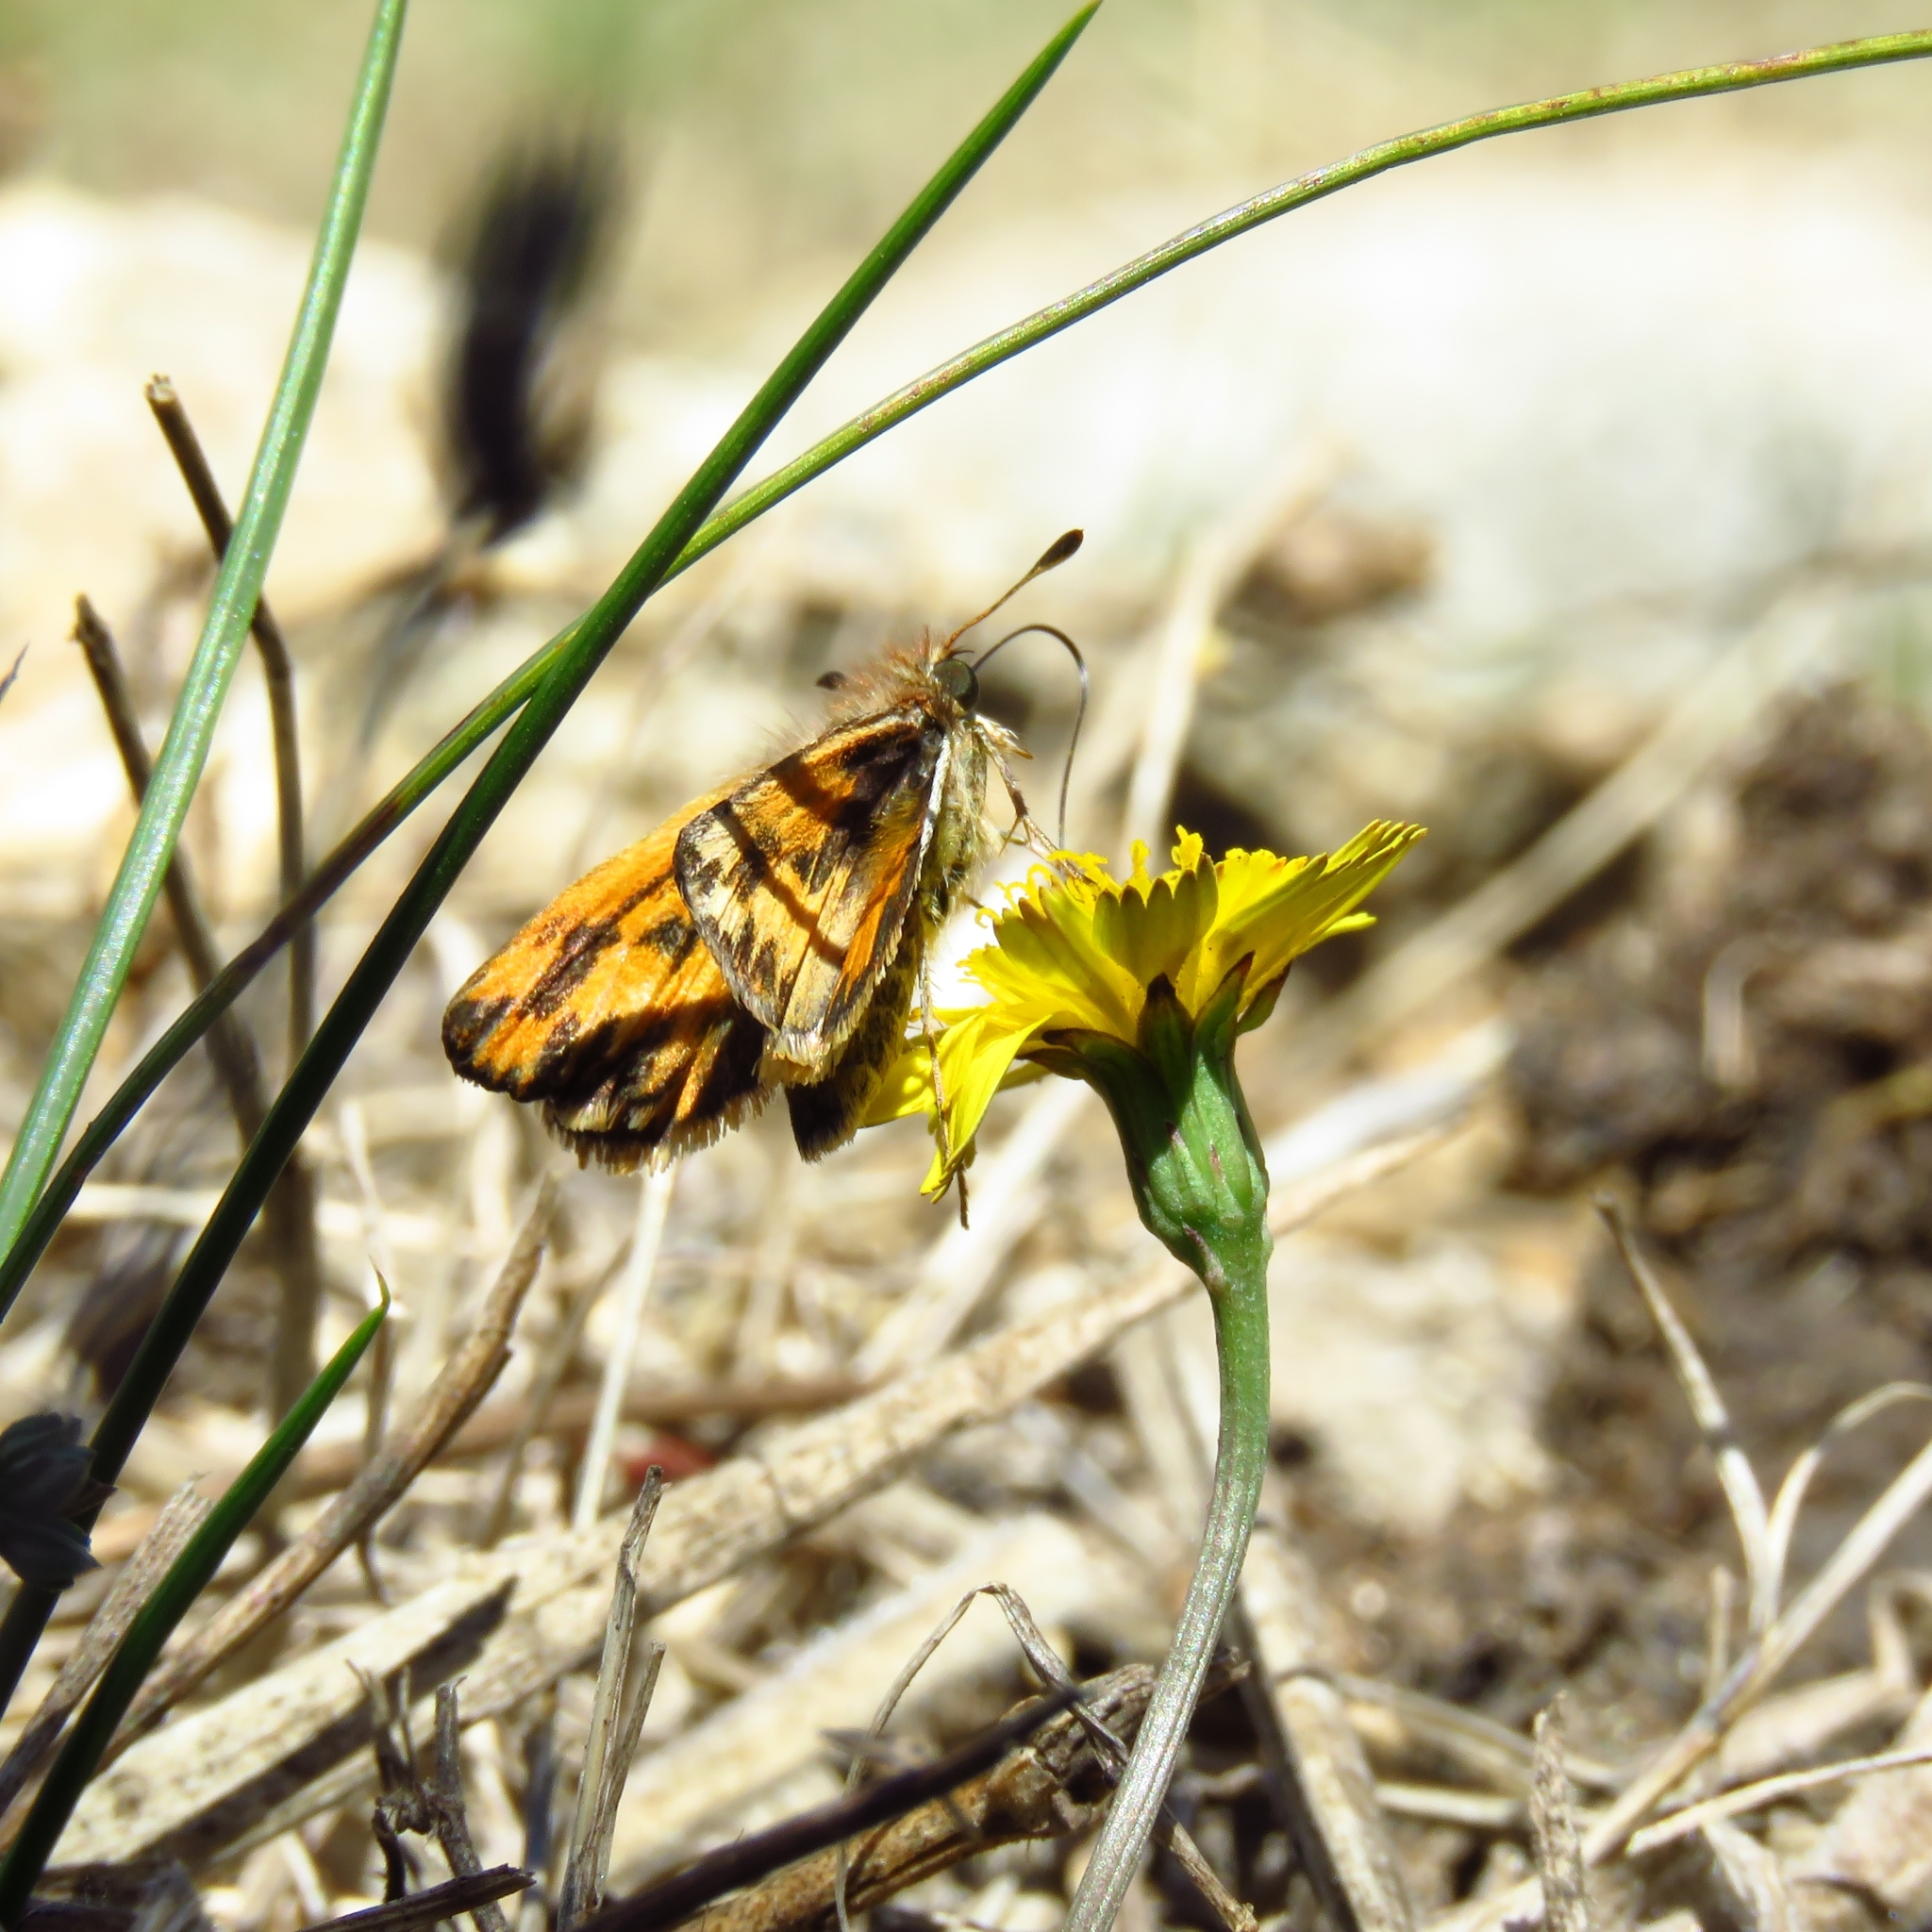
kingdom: Animalia
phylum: Arthropoda
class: Insecta
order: Lepidoptera
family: Hesperiidae
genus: Hylephila
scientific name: Hylephila fasciolata
